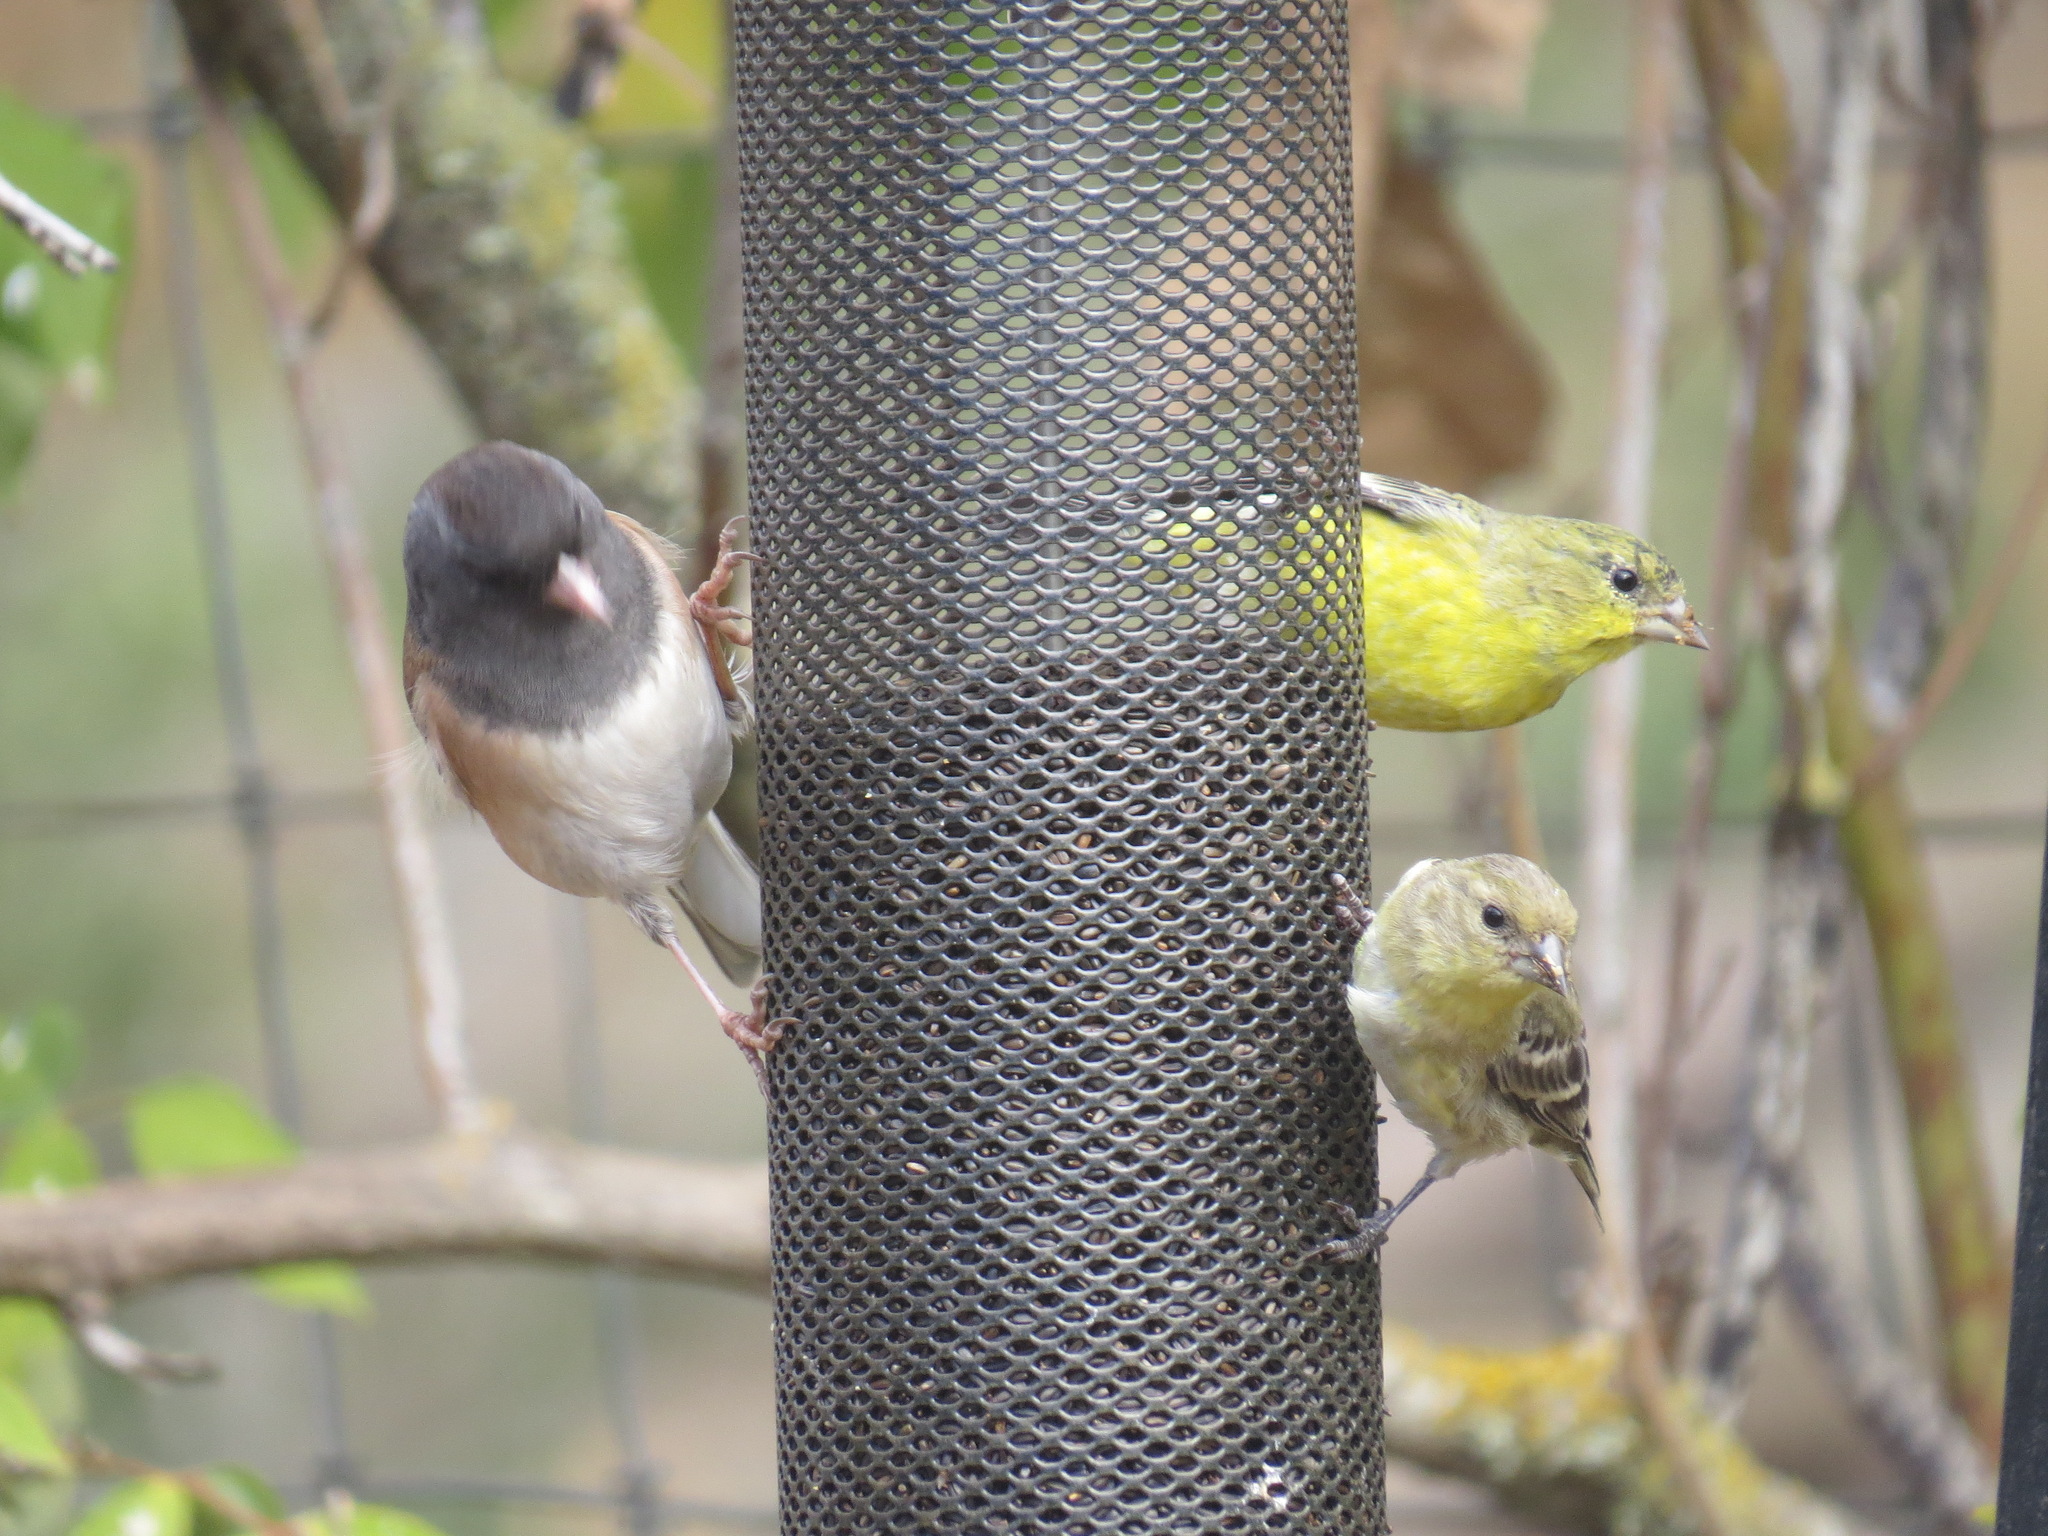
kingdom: Animalia
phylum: Chordata
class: Aves
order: Passeriformes
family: Fringillidae
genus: Spinus
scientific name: Spinus psaltria
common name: Lesser goldfinch
